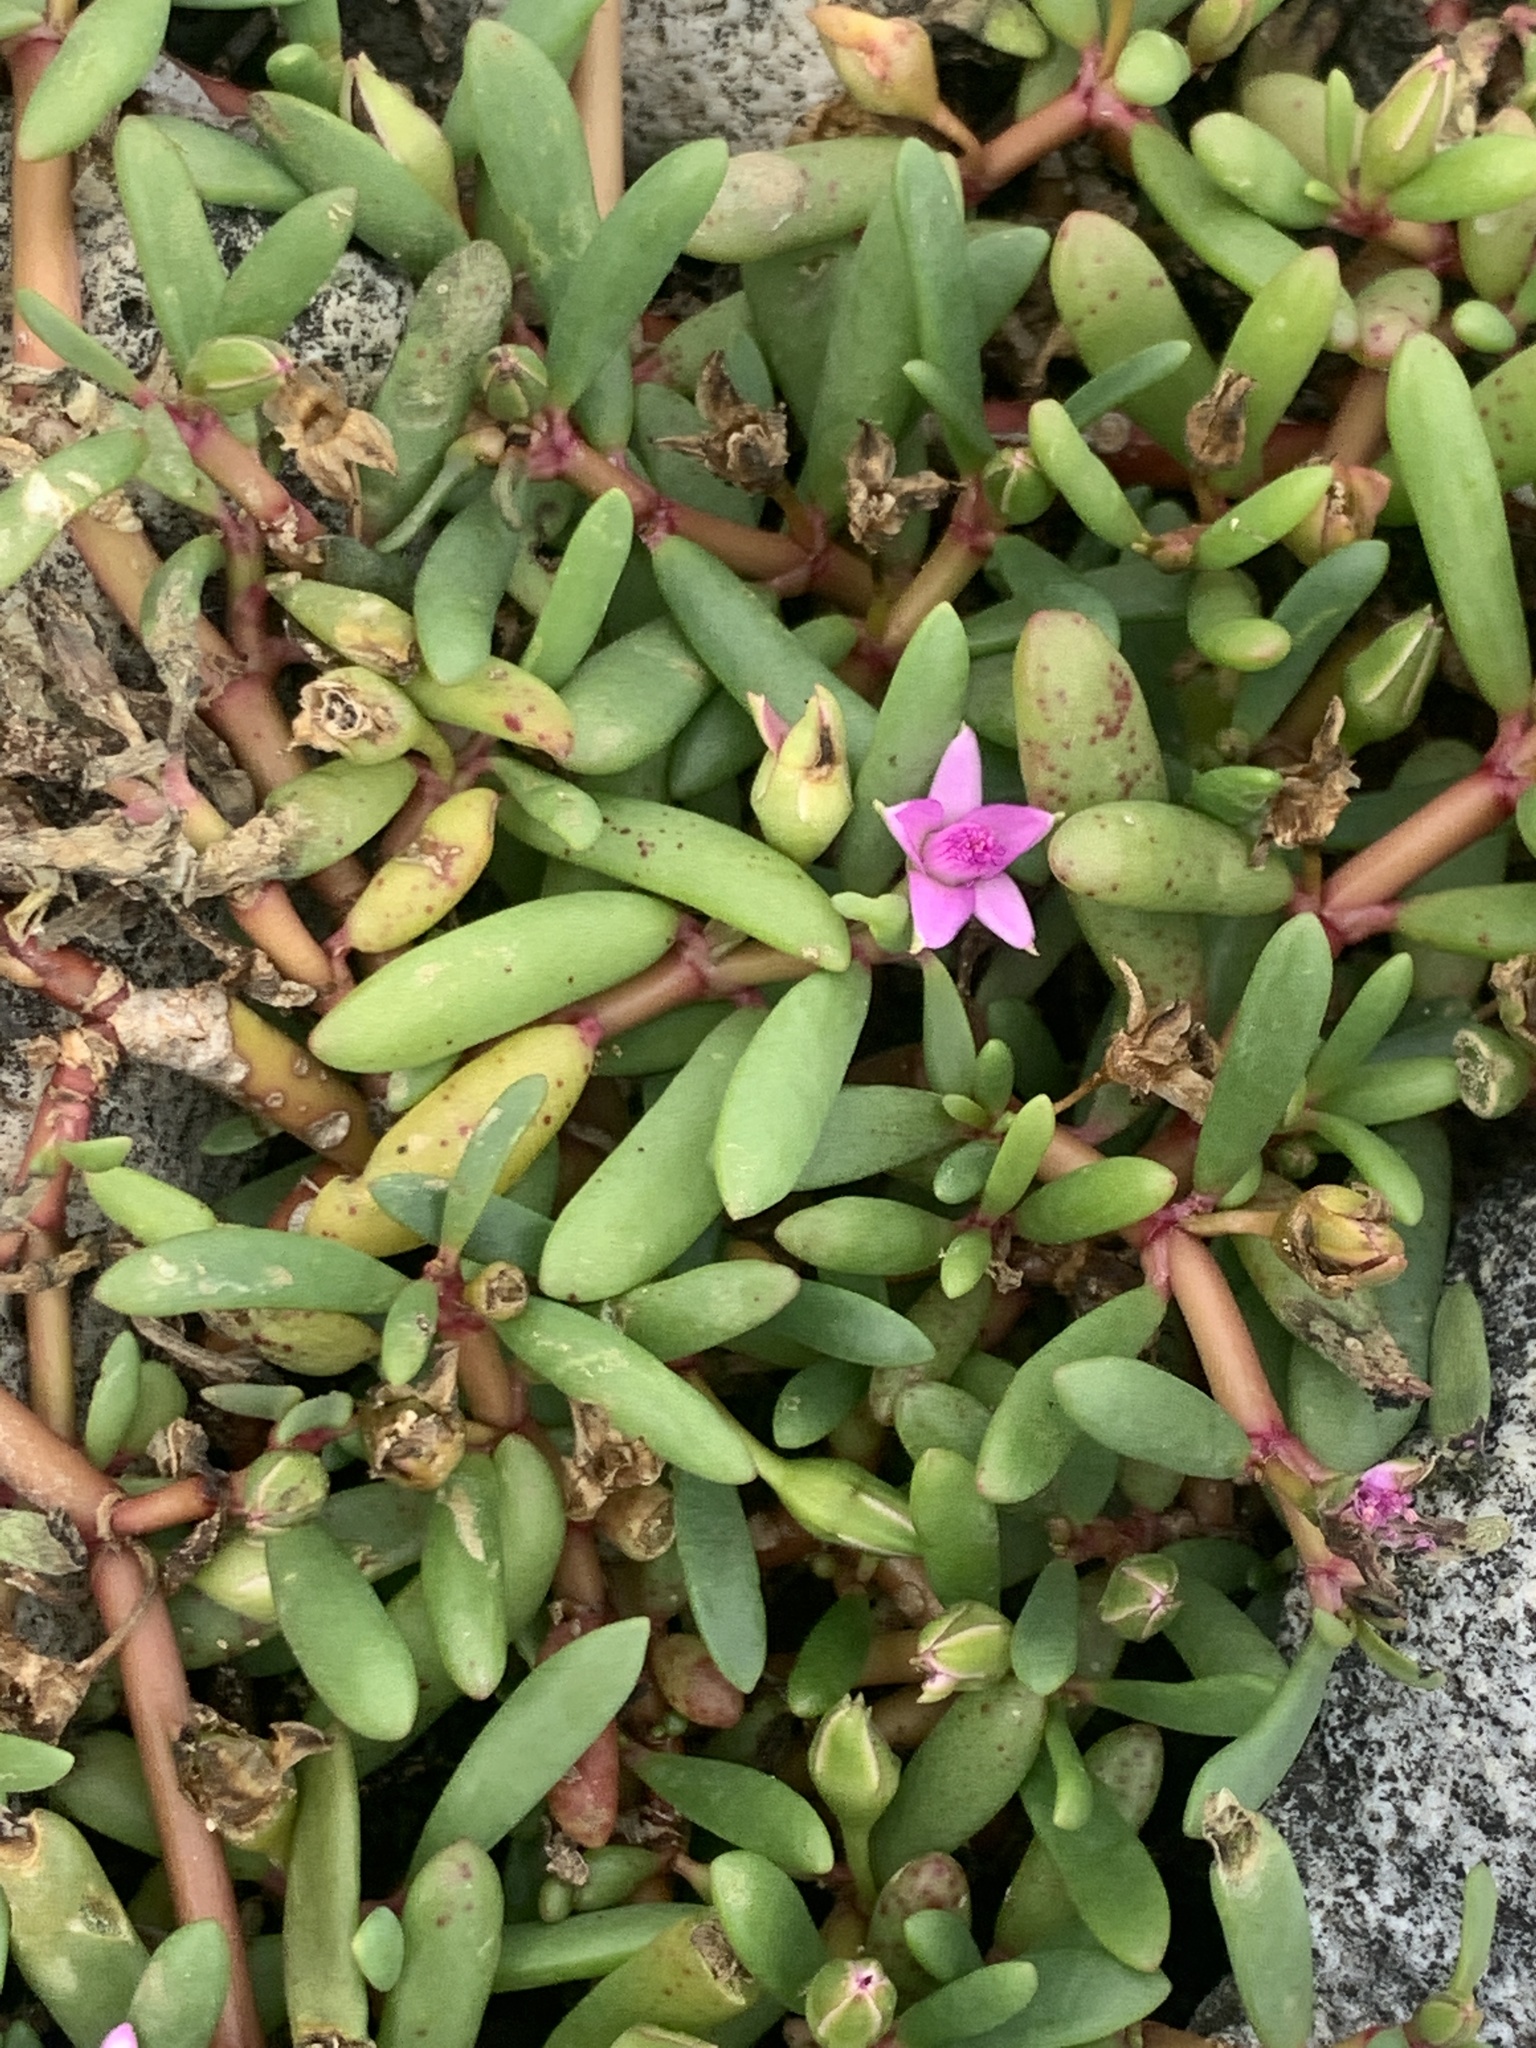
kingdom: Plantae
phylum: Tracheophyta
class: Magnoliopsida
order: Caryophyllales
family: Aizoaceae
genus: Sesuvium
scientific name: Sesuvium portulacastrum
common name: Sea-purslane
